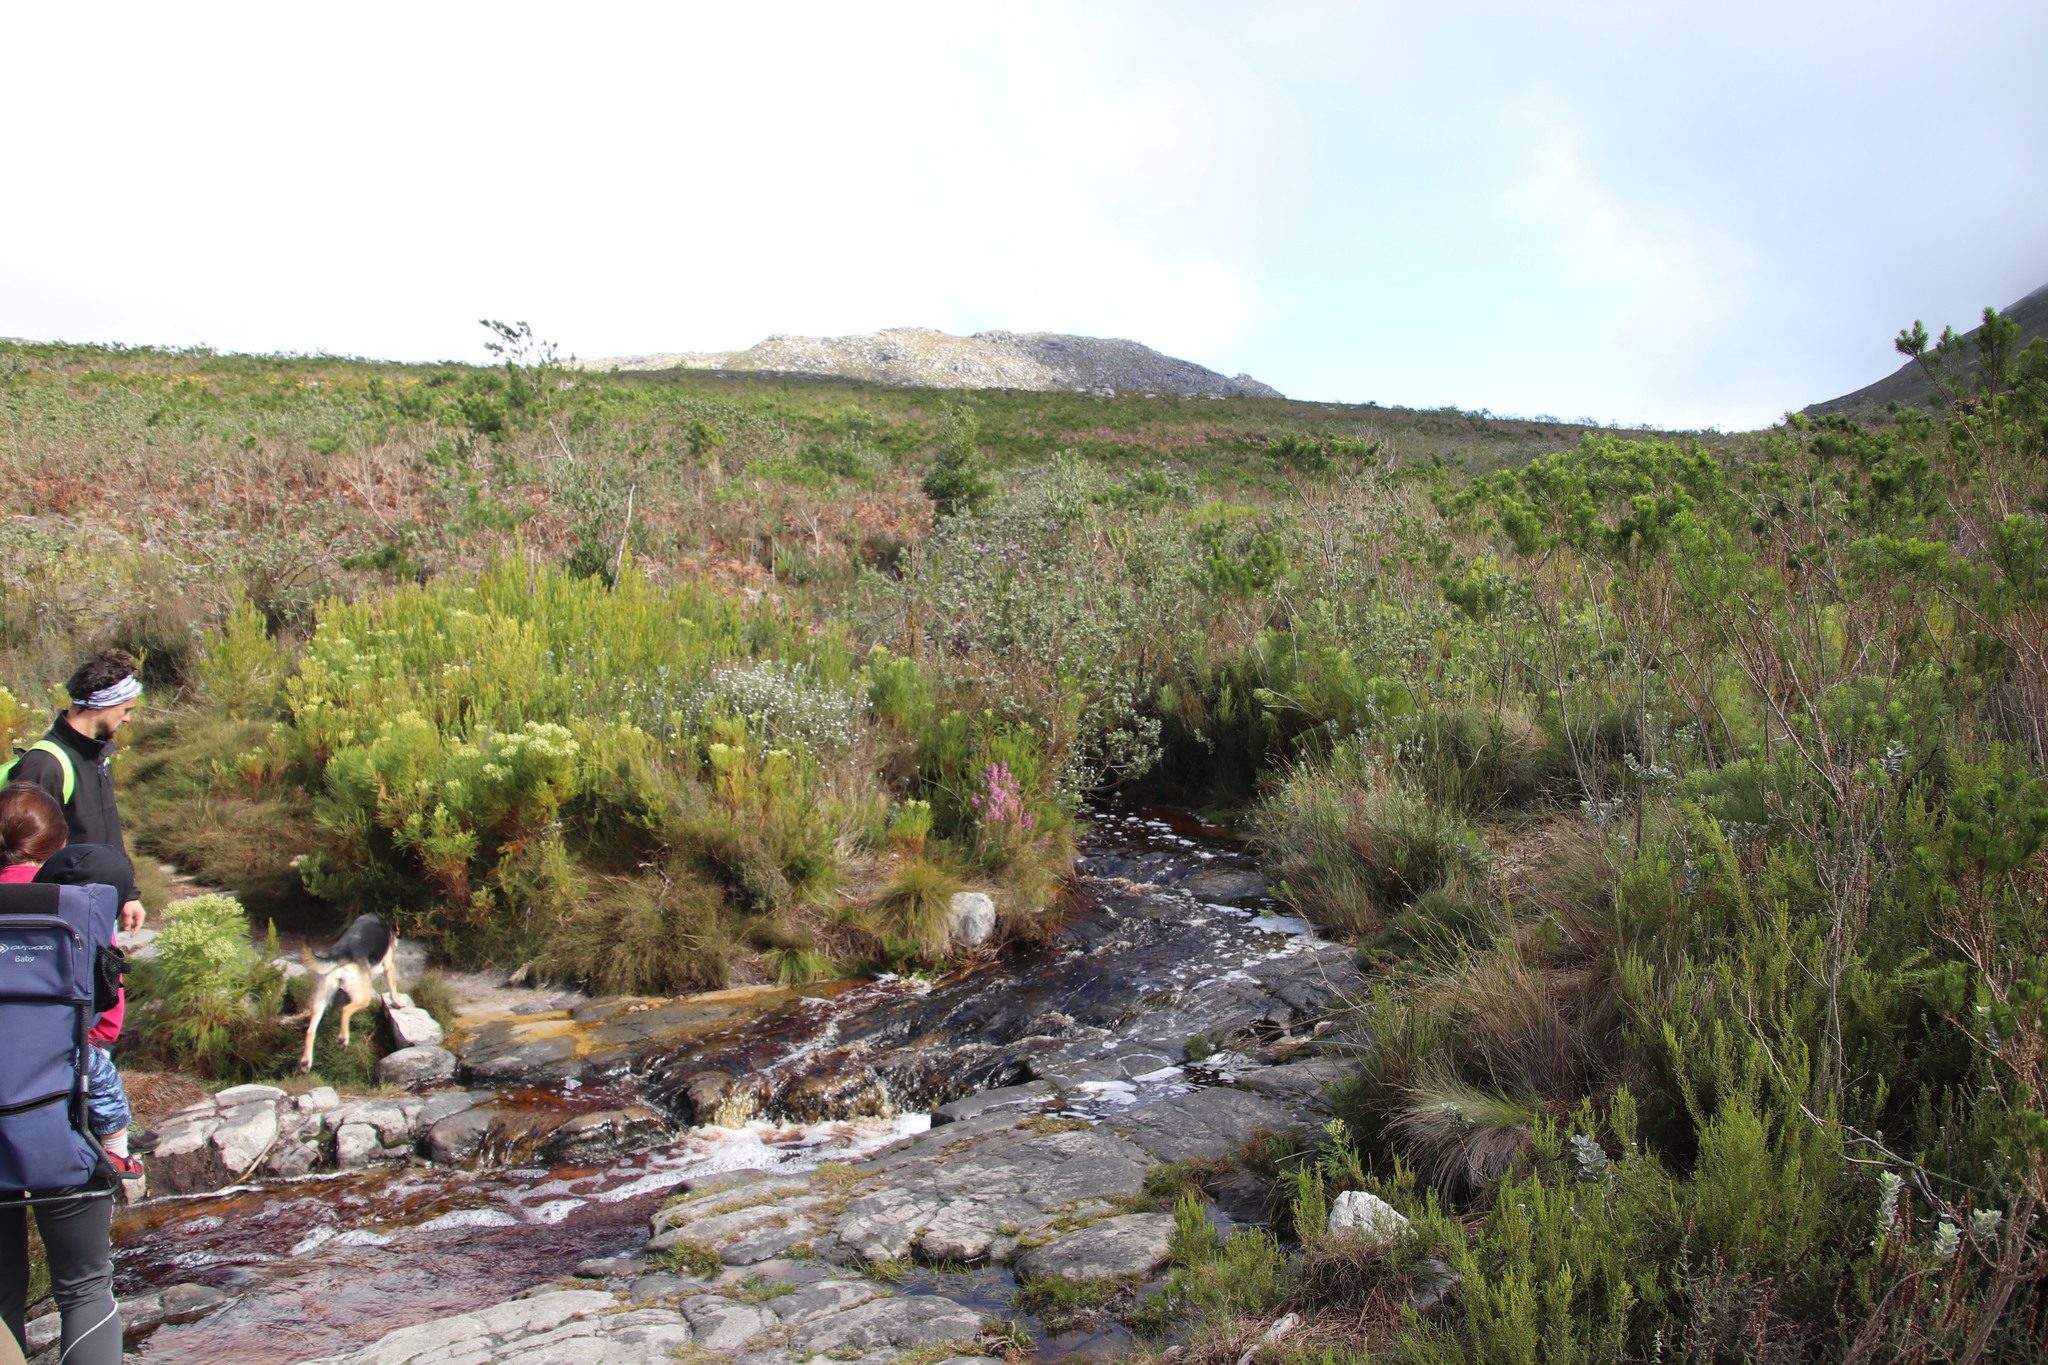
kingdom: Plantae
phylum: Tracheophyta
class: Magnoliopsida
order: Ericales
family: Ericaceae
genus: Erica
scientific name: Erica hirtiflora
